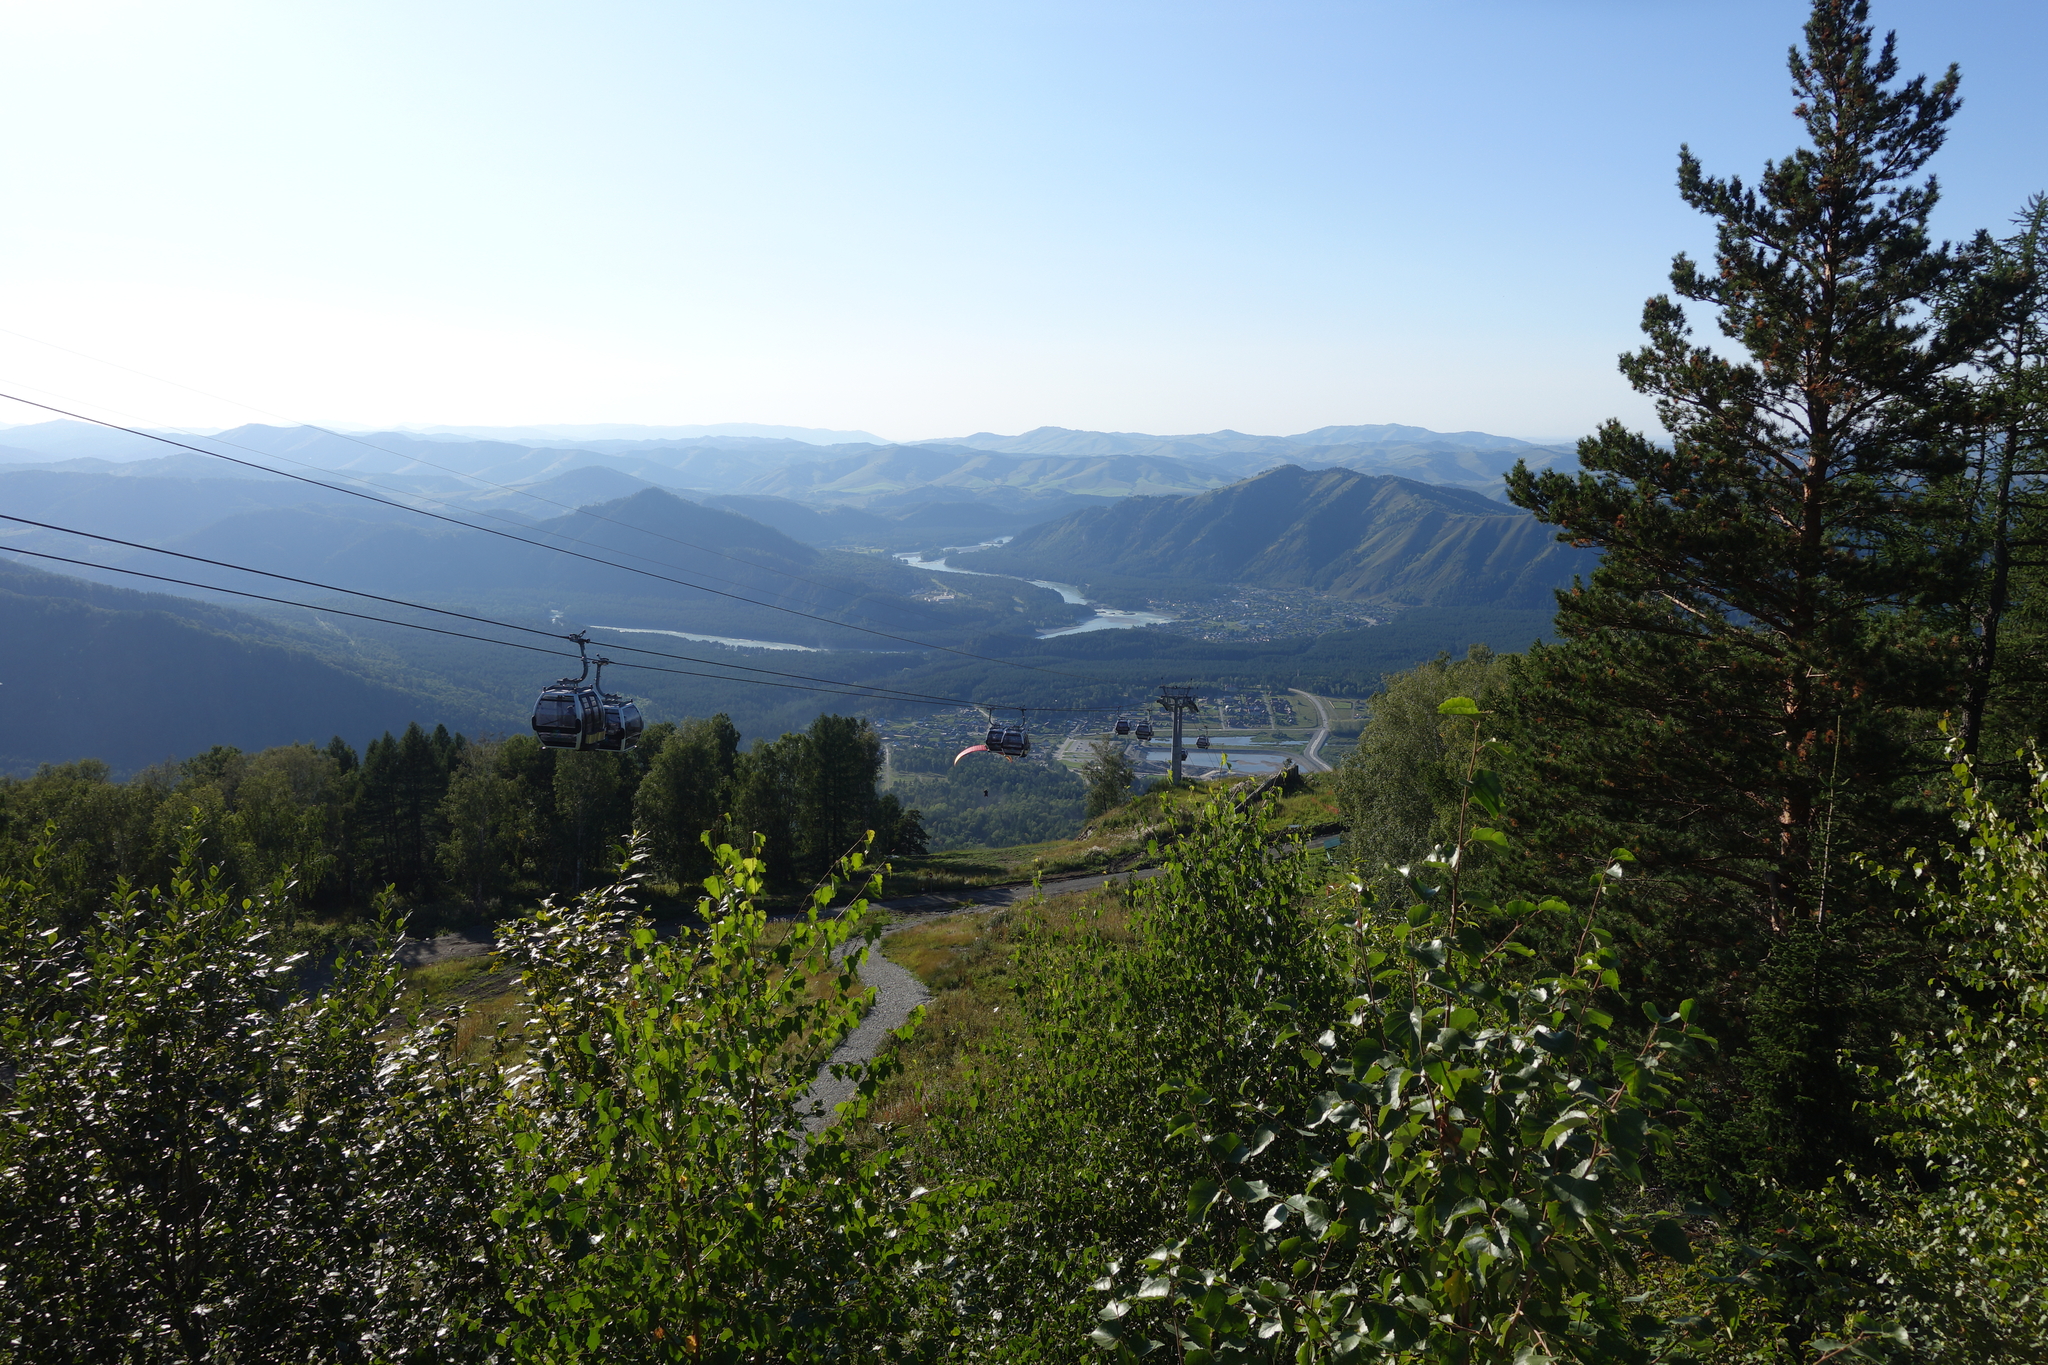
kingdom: Plantae
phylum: Tracheophyta
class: Pinopsida
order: Pinales
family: Pinaceae
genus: Pinus
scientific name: Pinus sylvestris
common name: Scots pine
